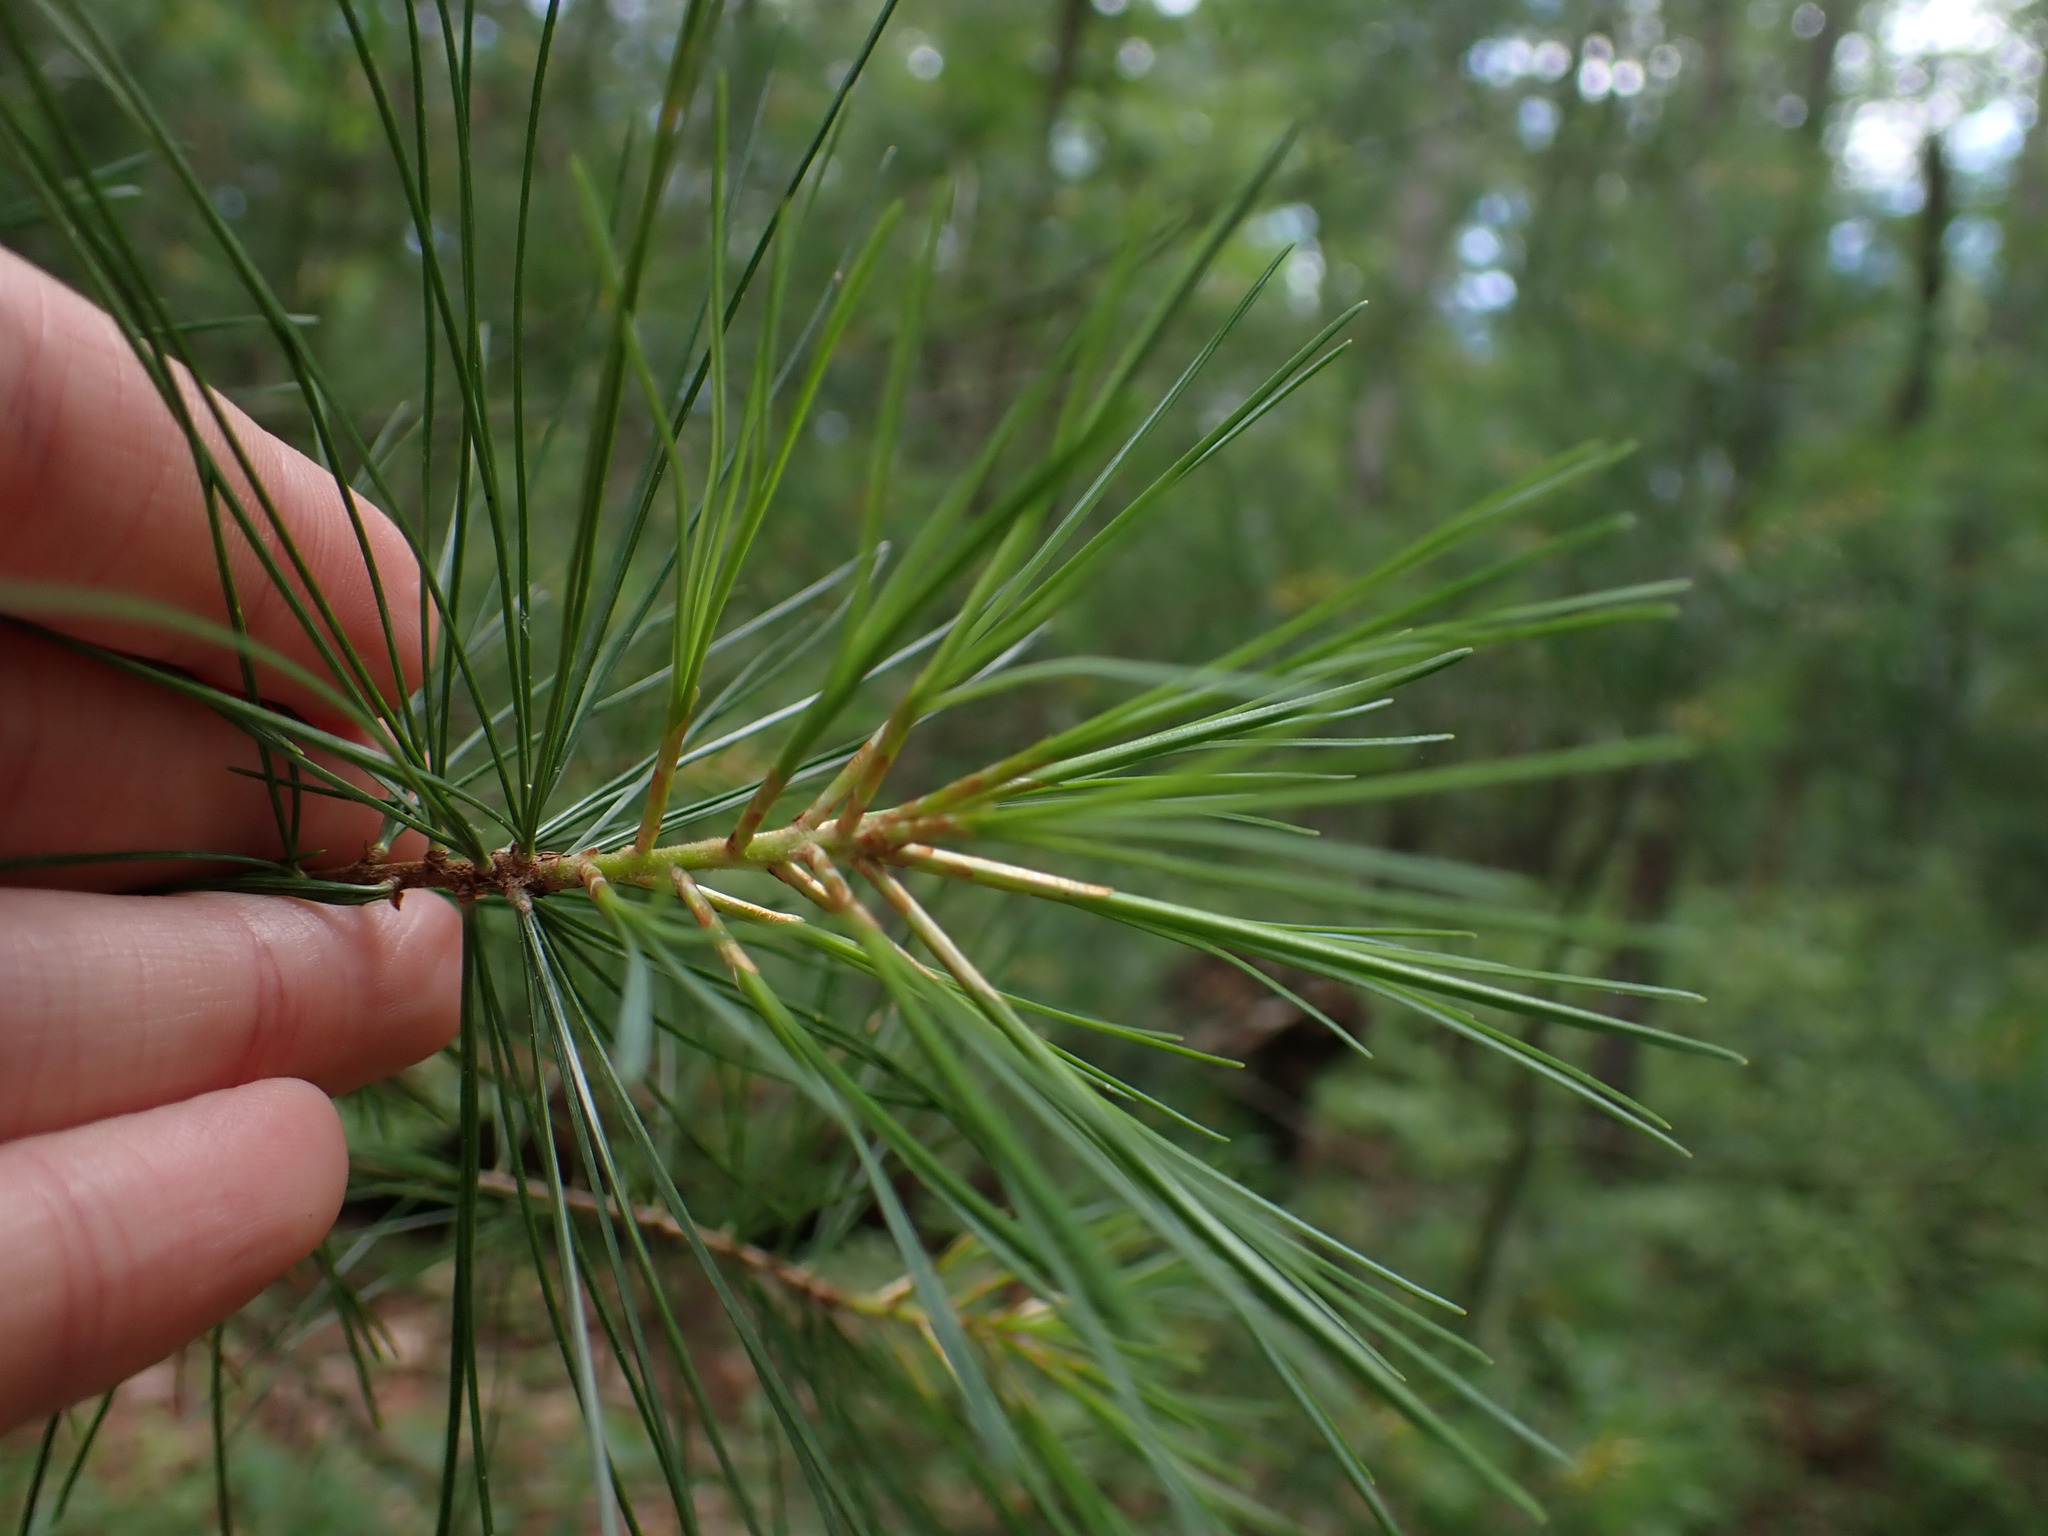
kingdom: Plantae
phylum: Tracheophyta
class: Pinopsida
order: Pinales
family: Pinaceae
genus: Pinus
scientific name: Pinus strobus
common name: Weymouth pine
